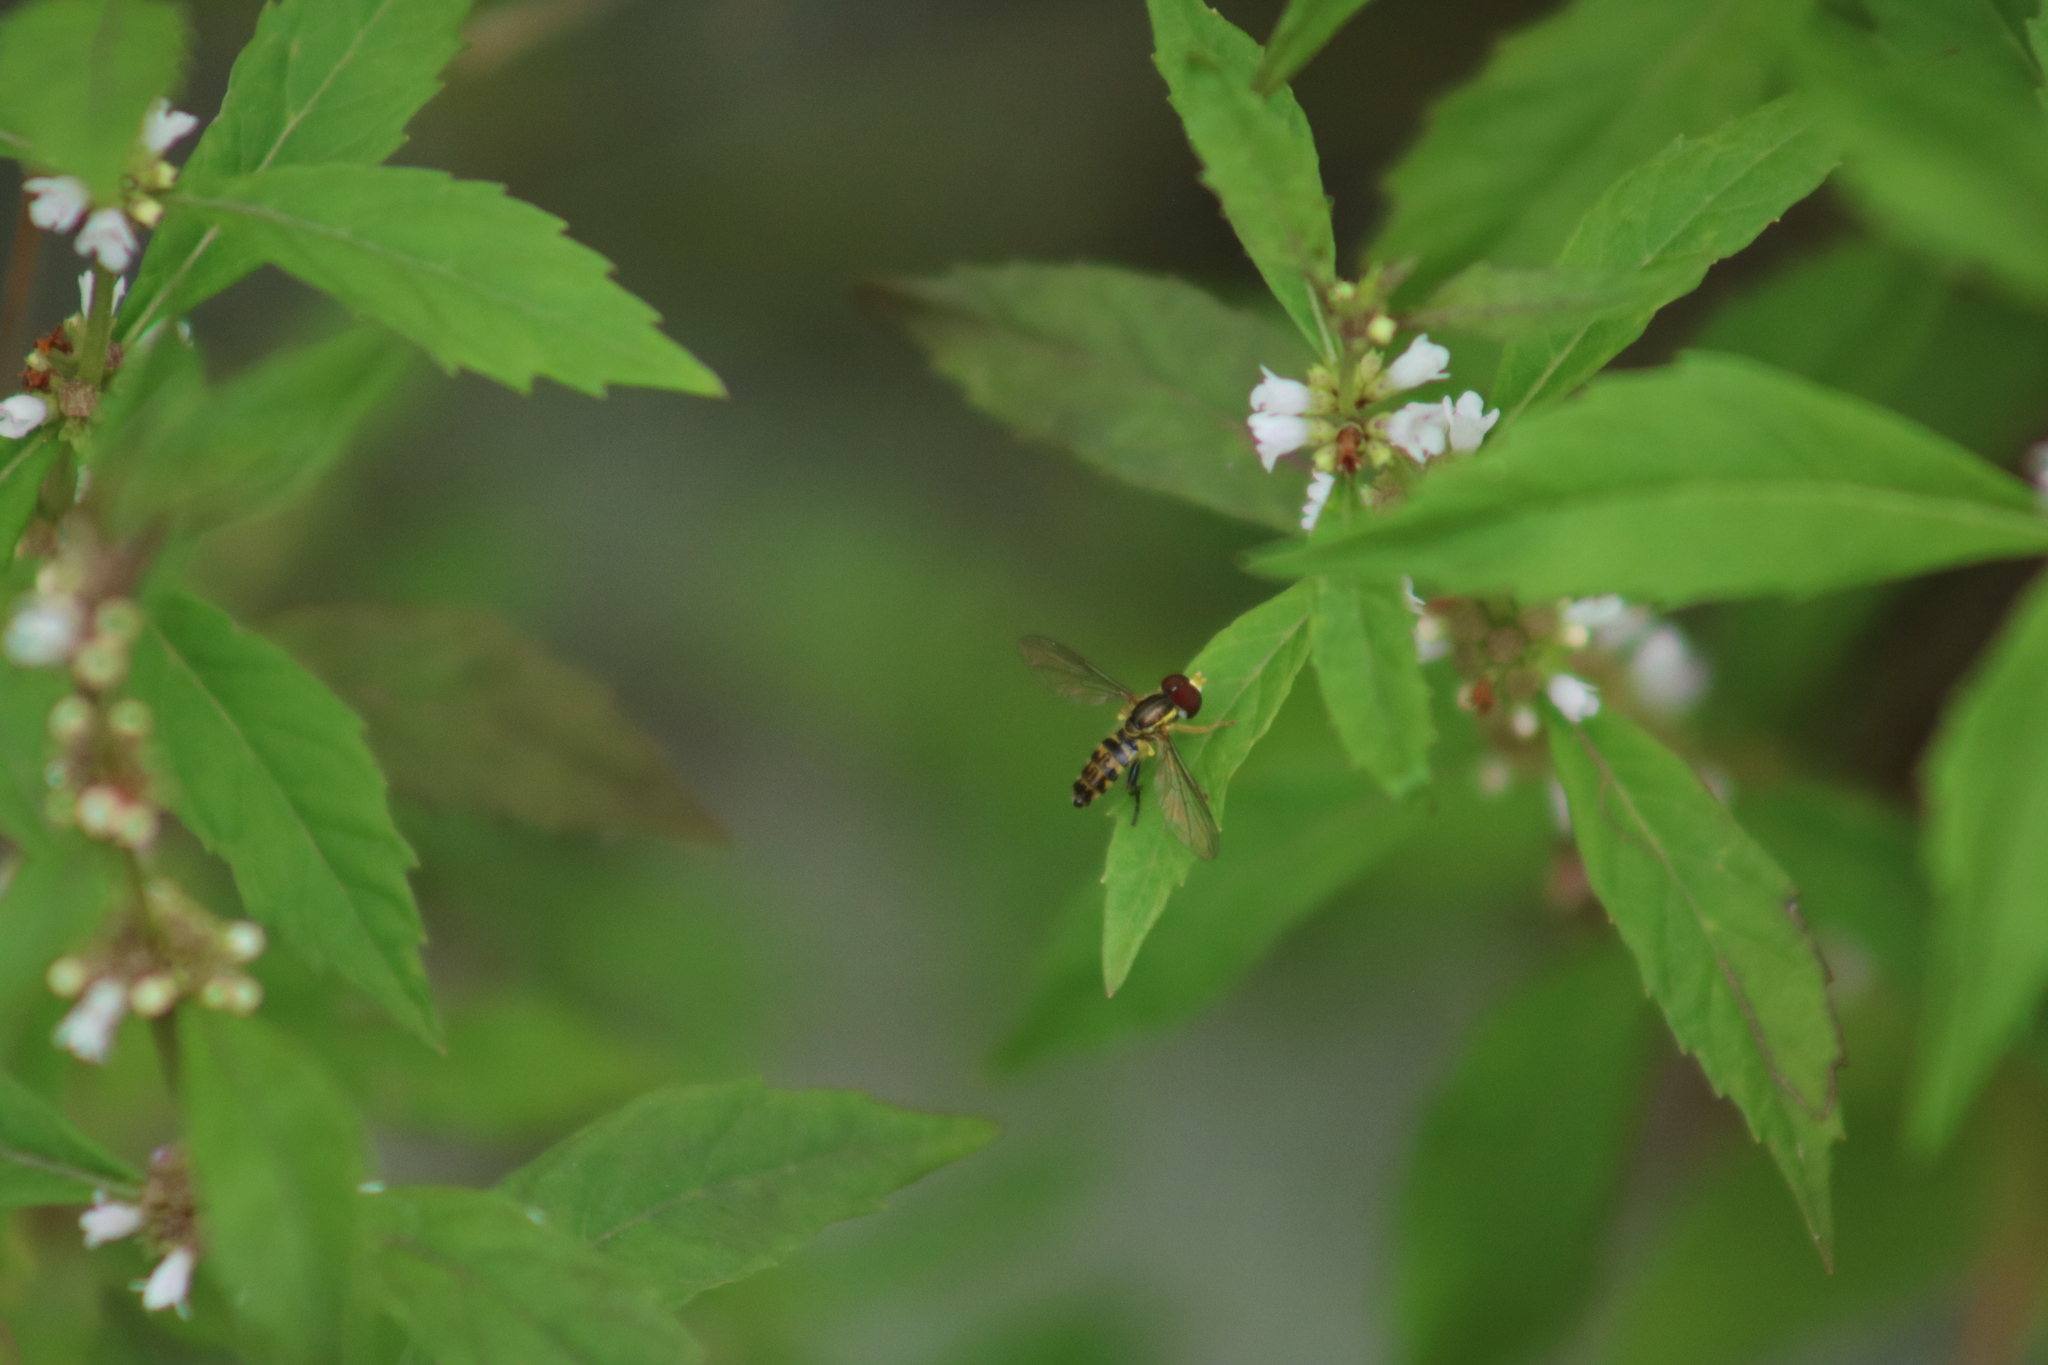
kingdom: Animalia
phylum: Arthropoda
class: Insecta
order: Diptera
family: Syrphidae
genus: Toxomerus
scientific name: Toxomerus geminatus
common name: Eastern calligrapher
